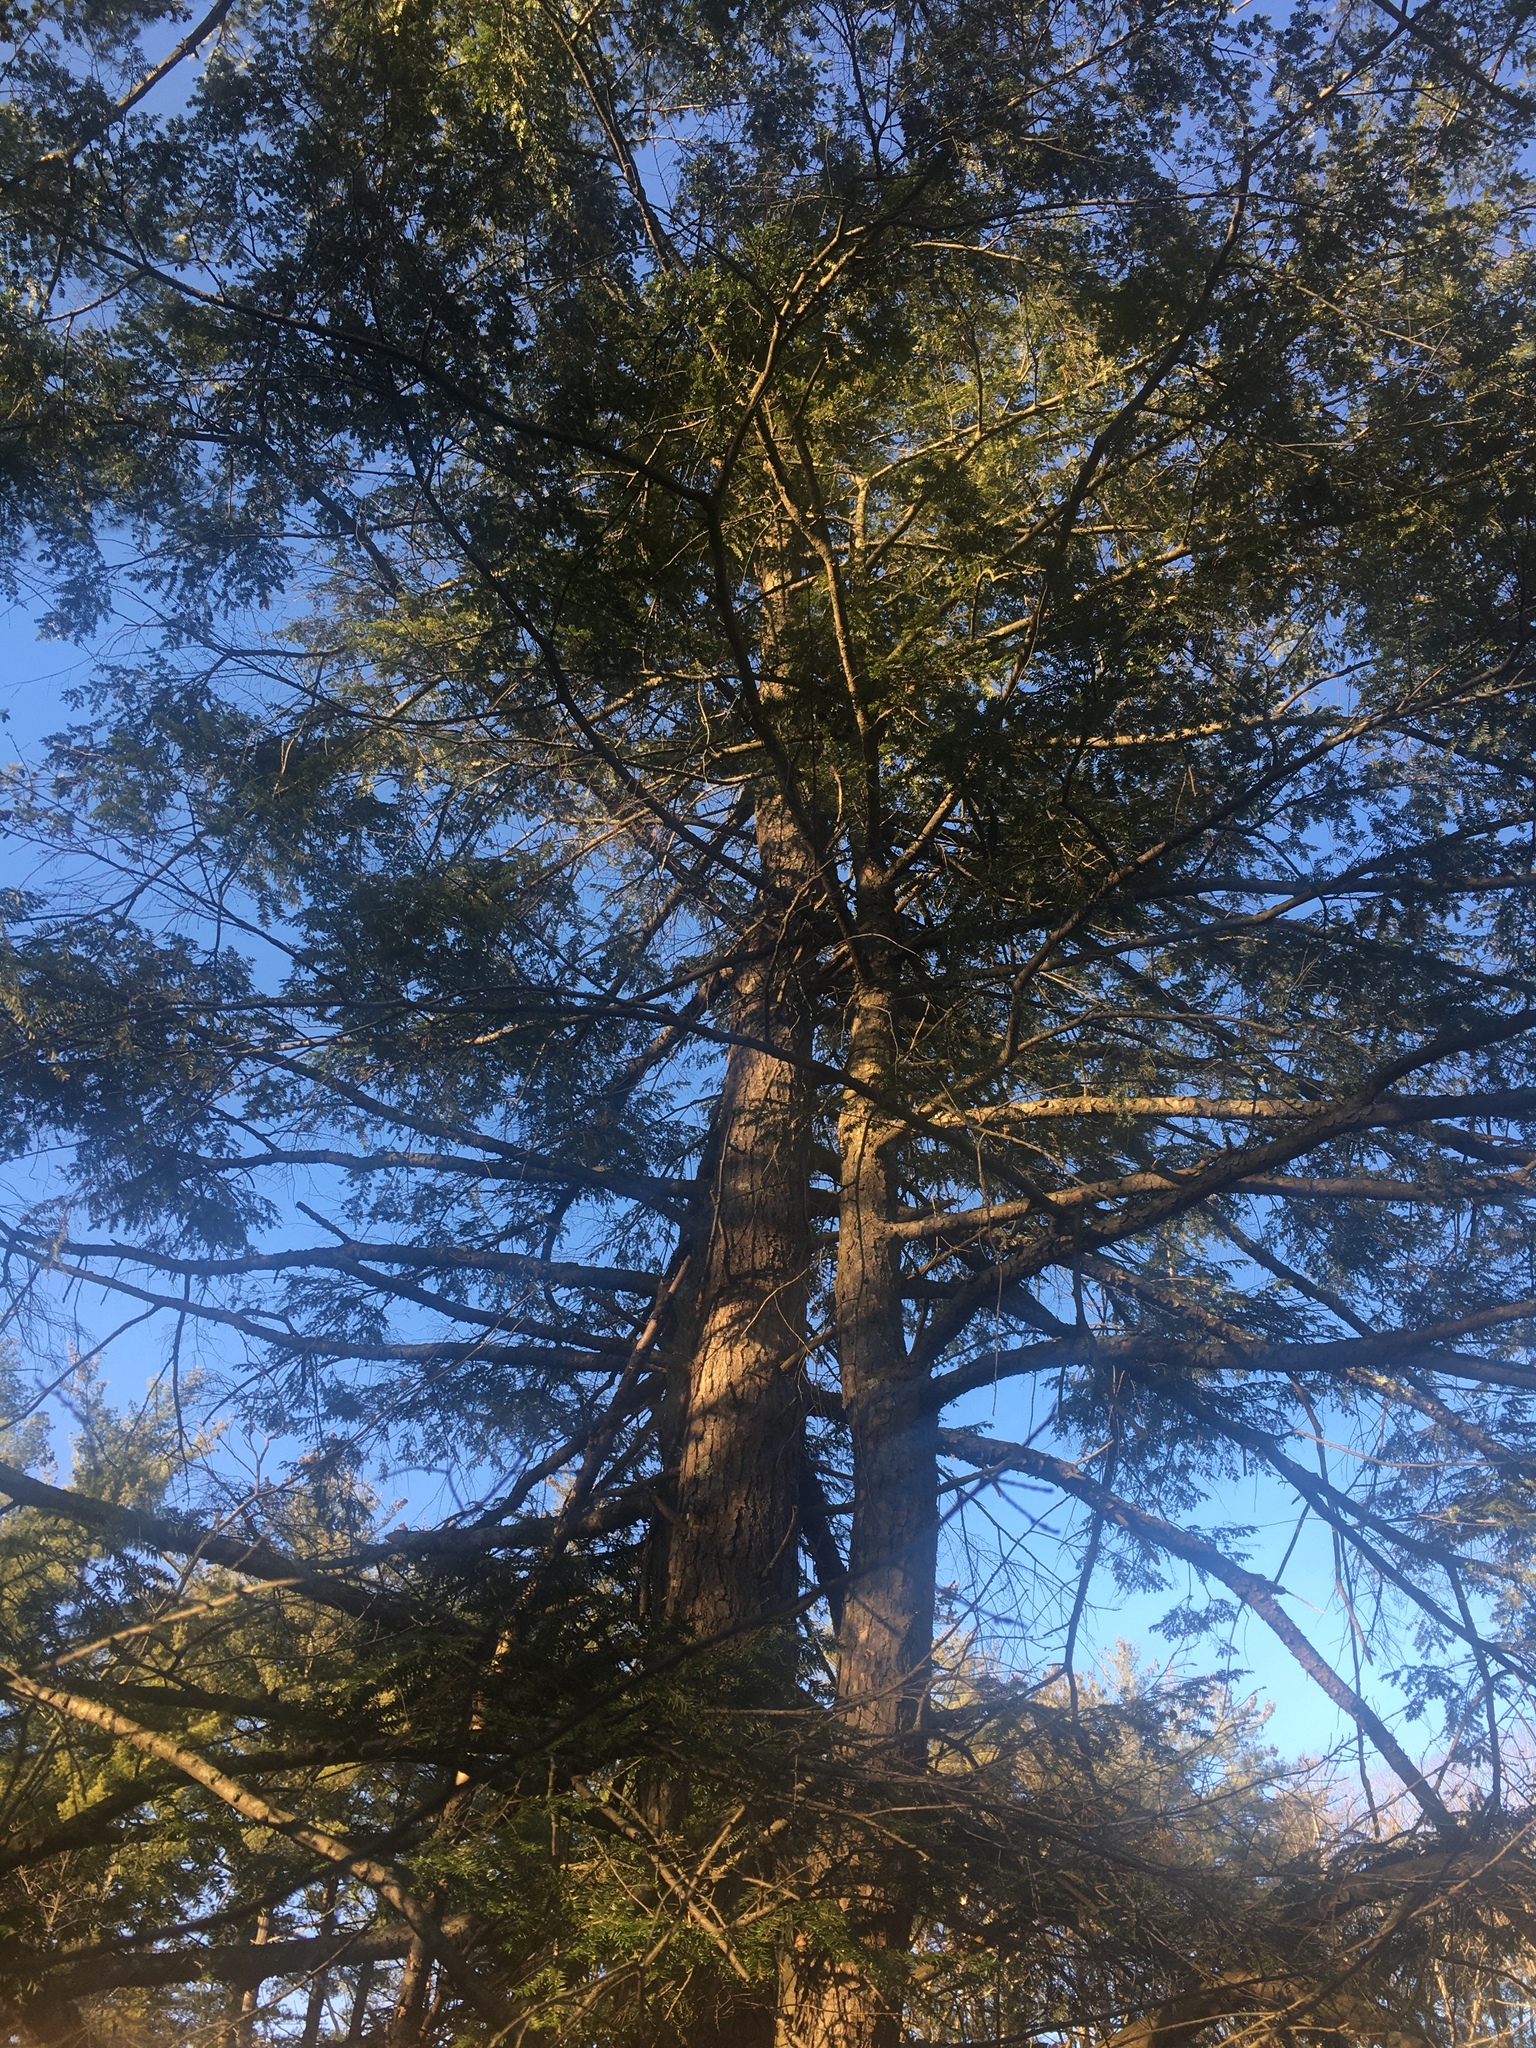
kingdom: Plantae
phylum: Tracheophyta
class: Pinopsida
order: Pinales
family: Pinaceae
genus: Tsuga
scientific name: Tsuga canadensis
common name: Eastern hemlock
